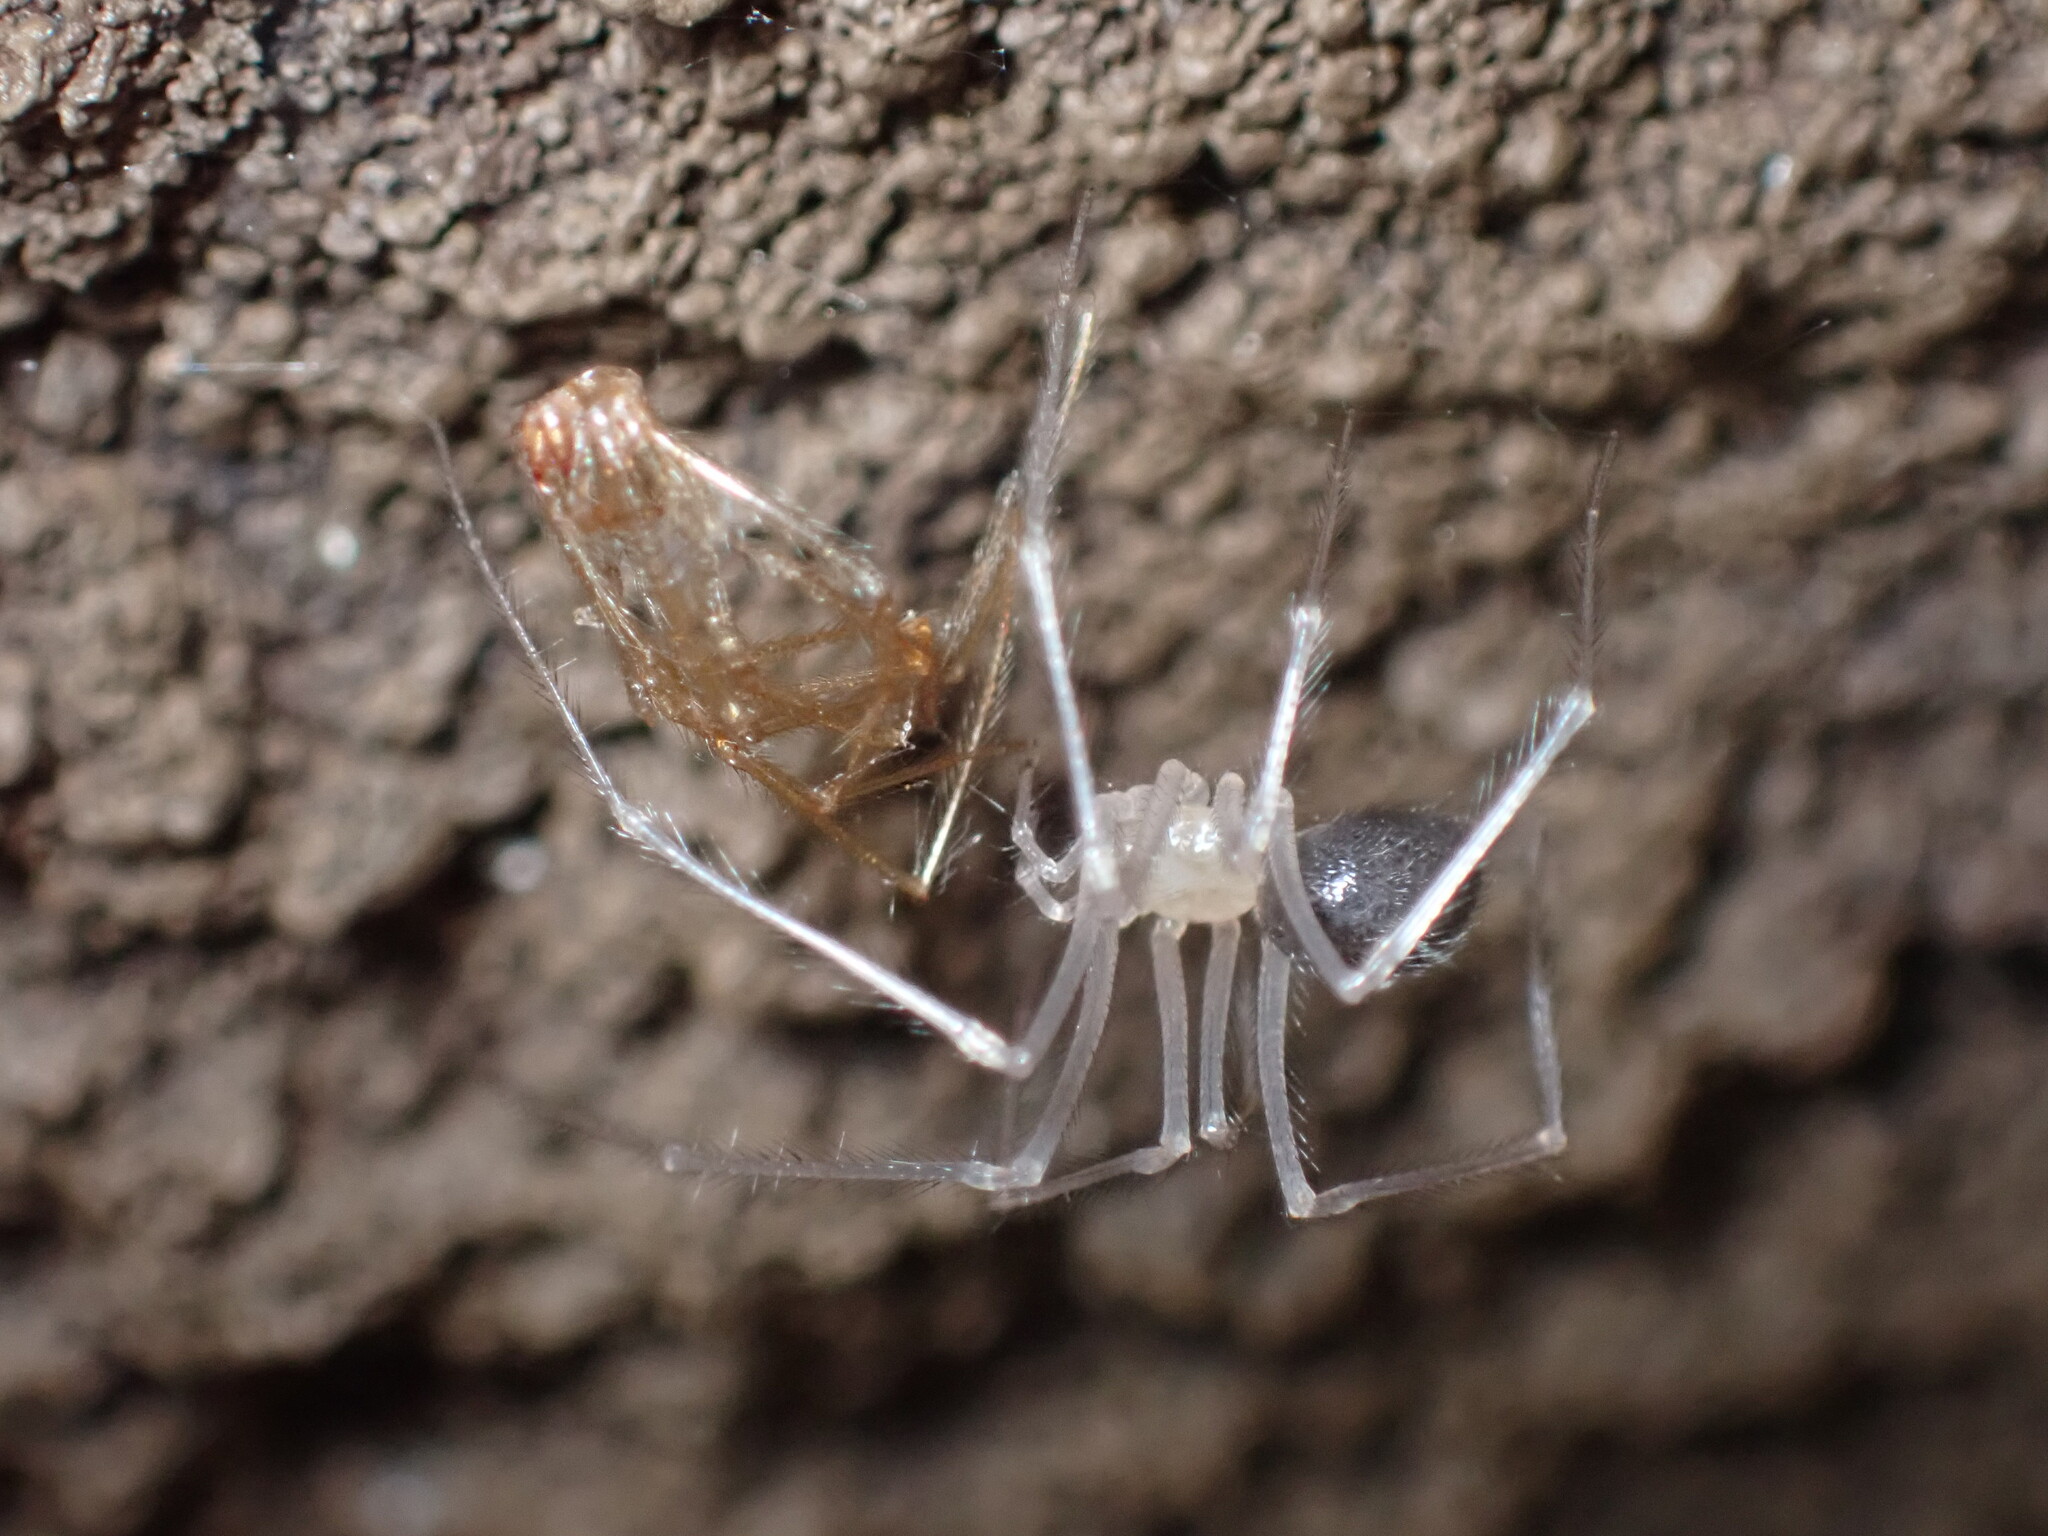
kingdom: Animalia
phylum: Arthropoda
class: Arachnida
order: Araneae
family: Nesticidae
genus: Nesticus
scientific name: Nesticus barri
